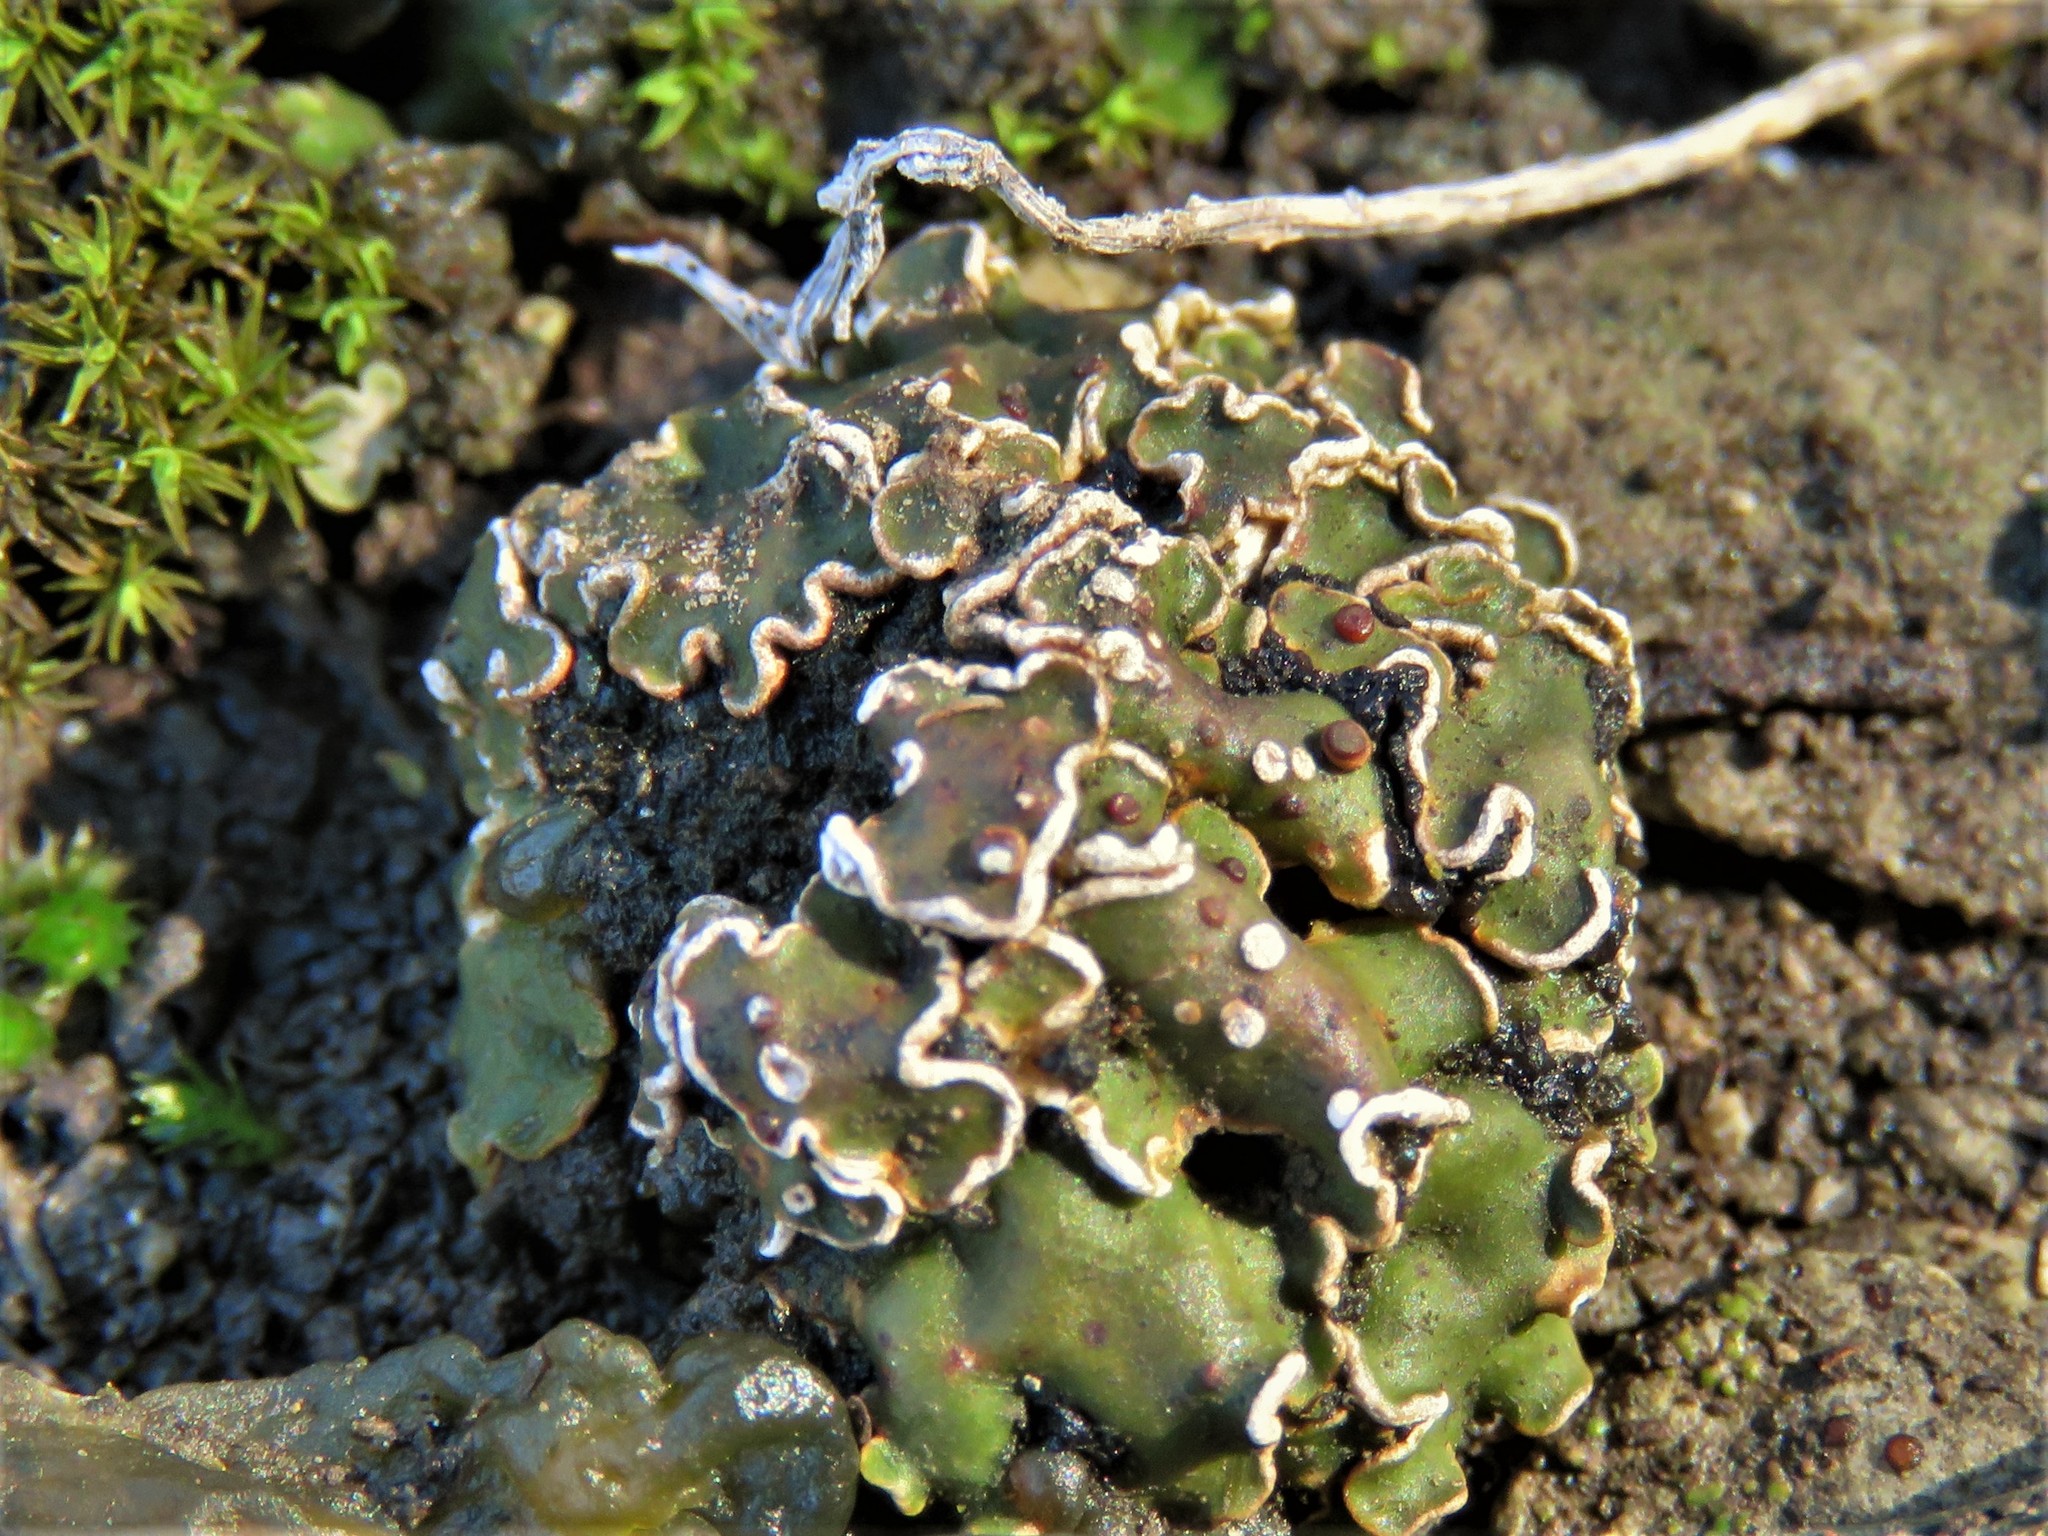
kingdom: Fungi
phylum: Ascomycota
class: Lecanoromycetes
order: Lecanorales
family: Psoraceae
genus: Psora
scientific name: Psora pseudorussellii
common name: Bordered scale lichen
